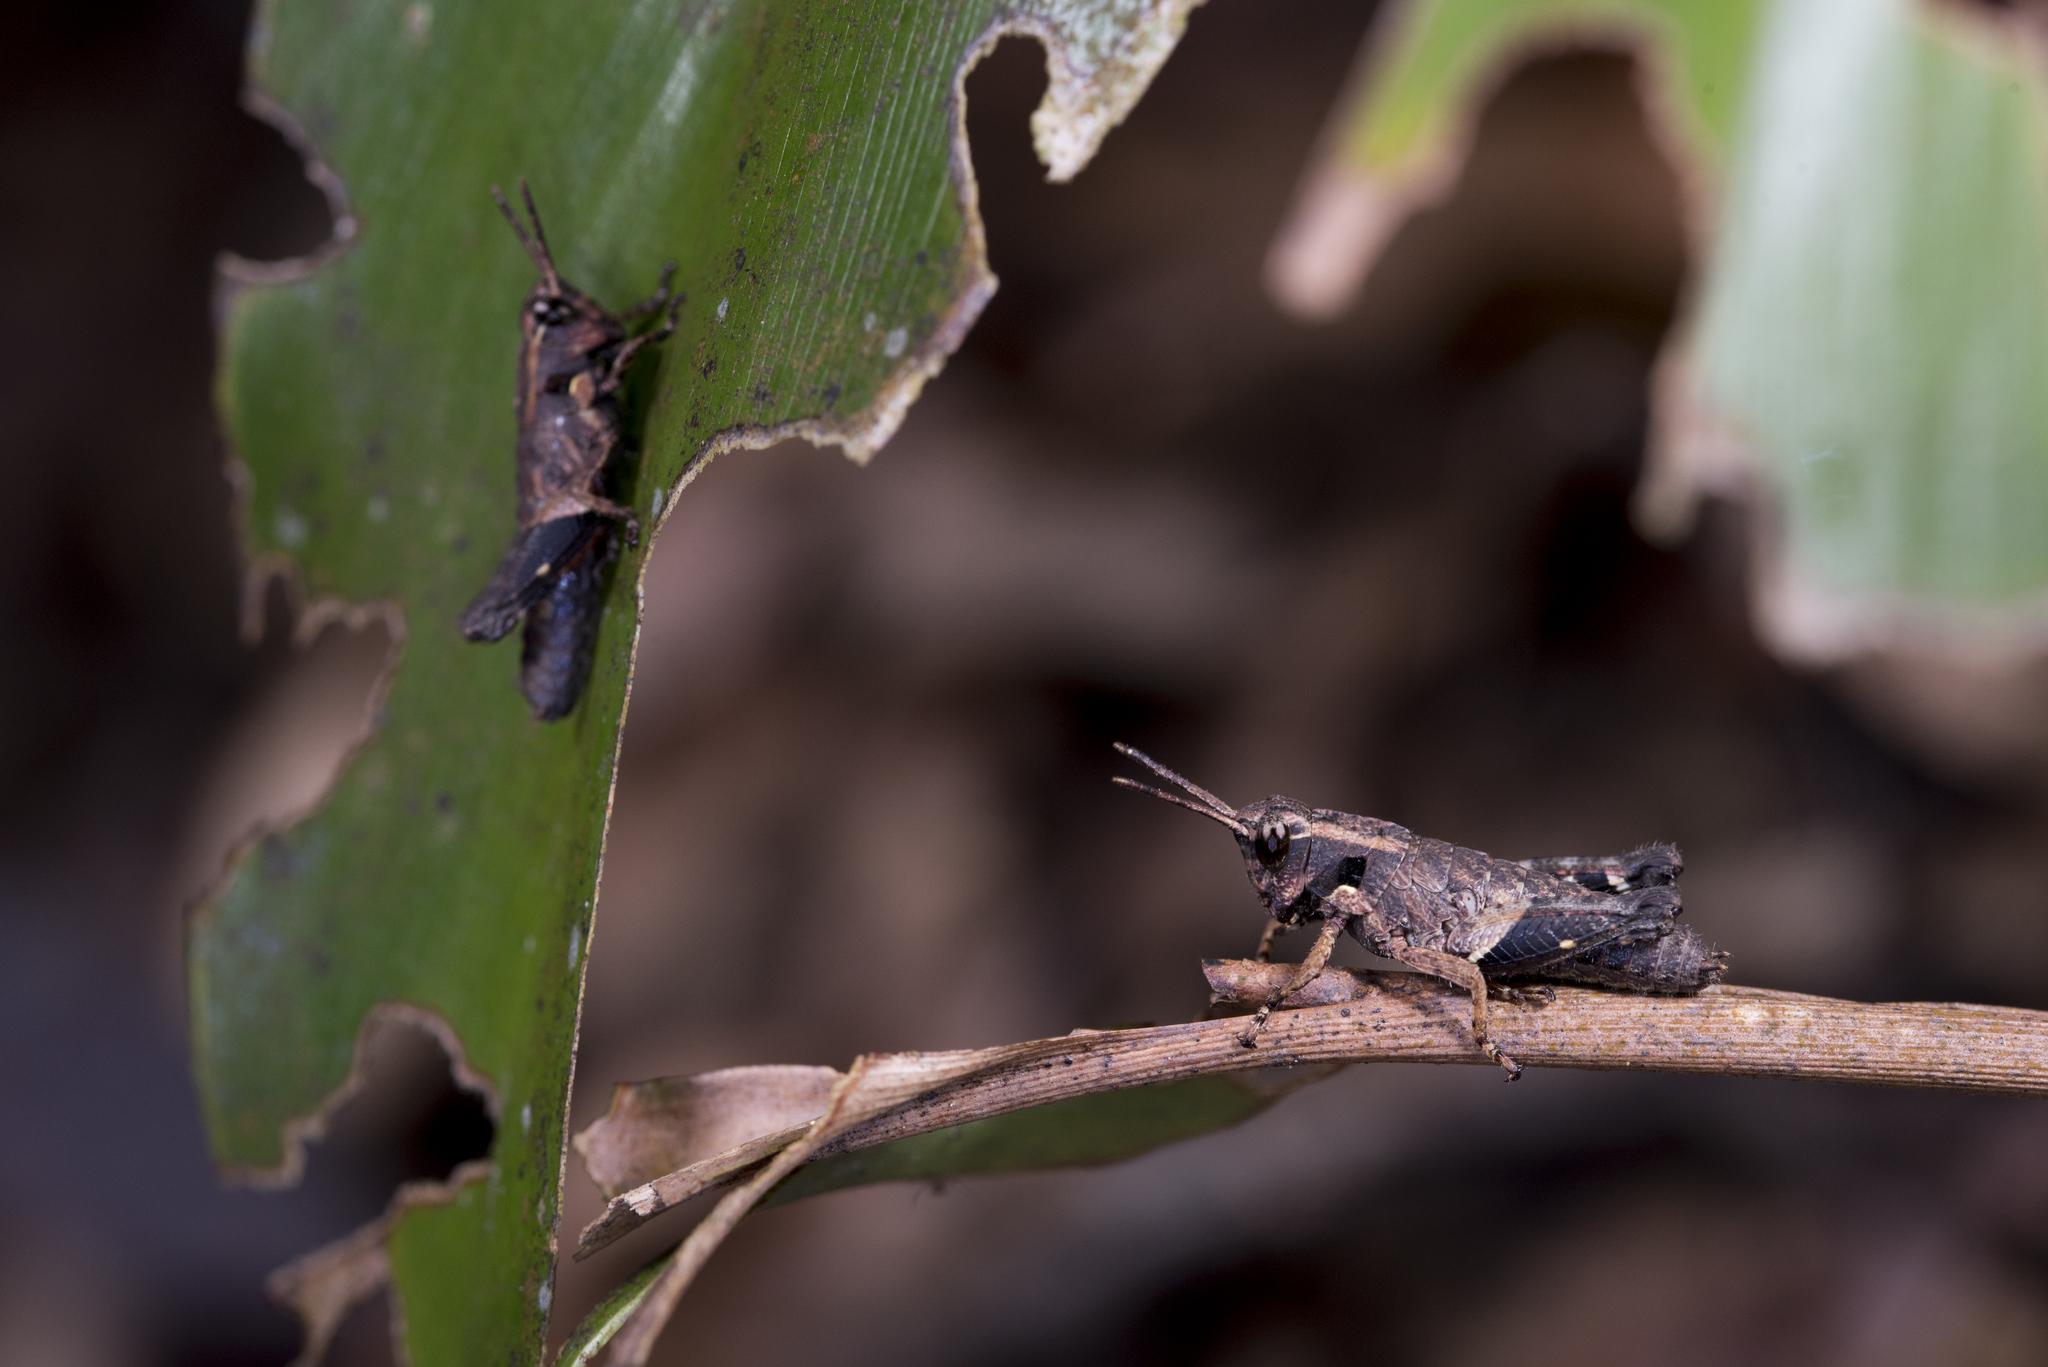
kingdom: Animalia
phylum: Arthropoda
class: Insecta
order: Orthoptera
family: Acrididae
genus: Traulia
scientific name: Traulia ornata
